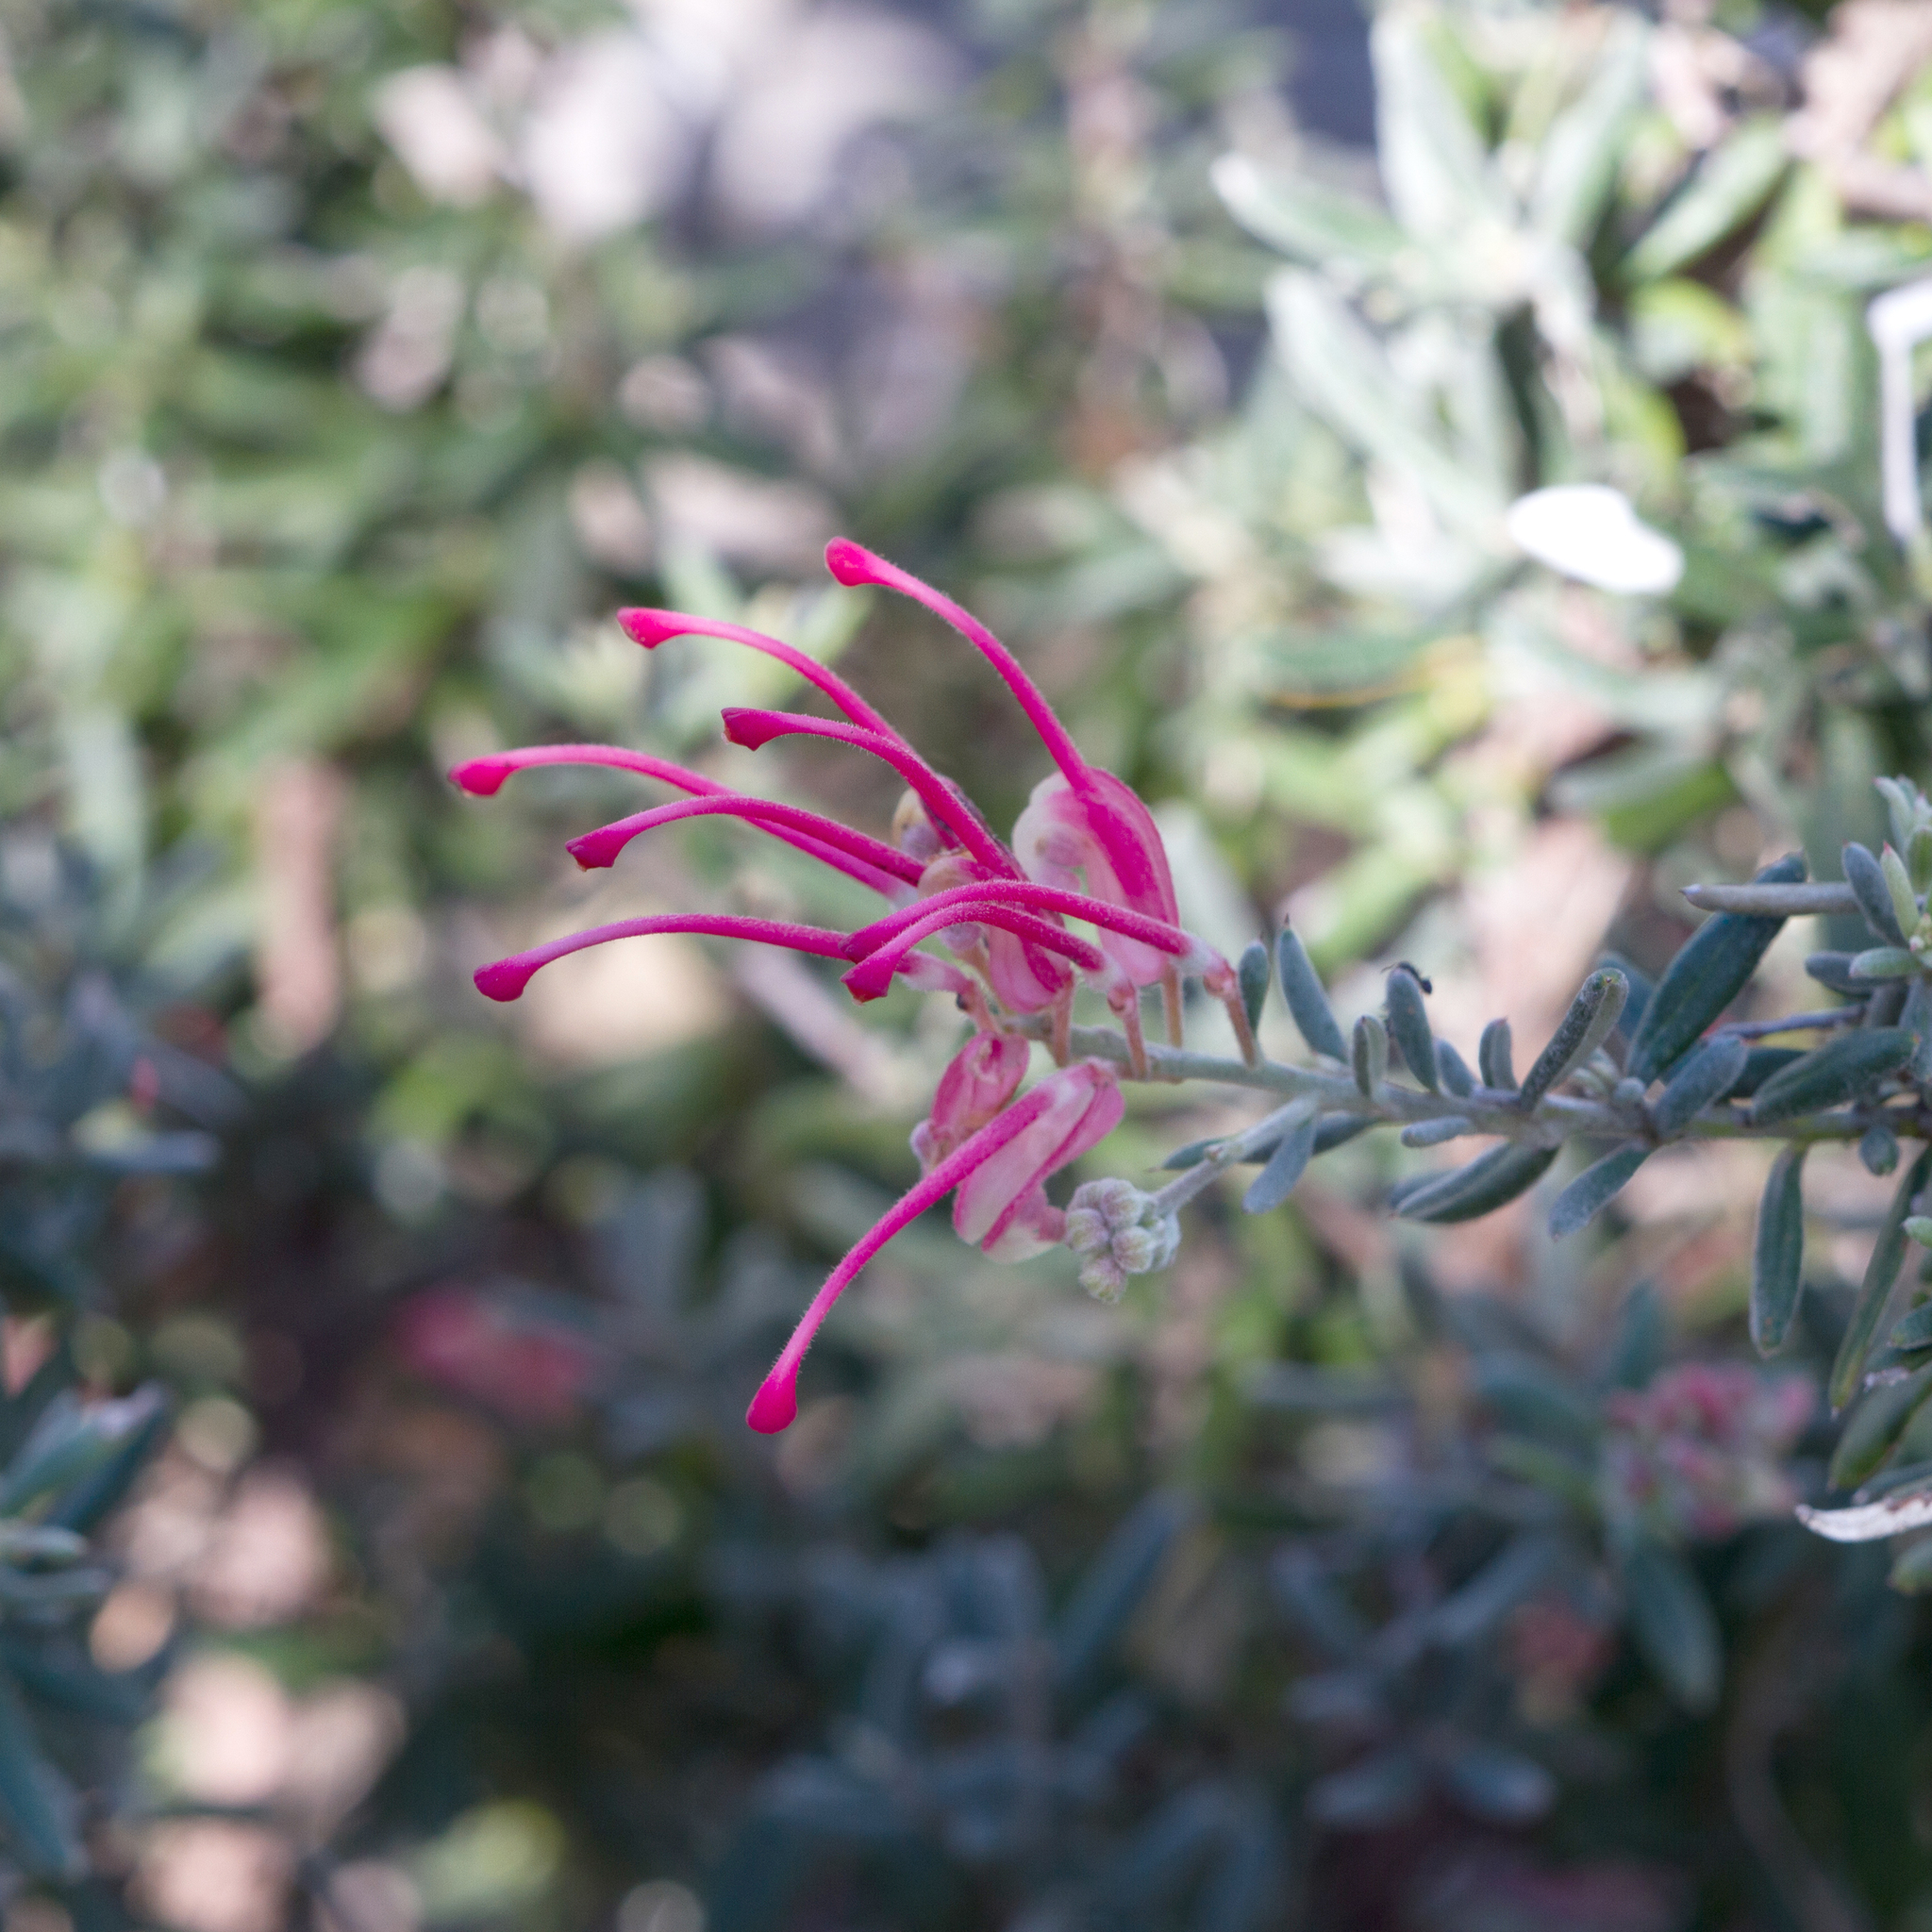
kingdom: Plantae
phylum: Tracheophyta
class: Magnoliopsida
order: Proteales
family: Proteaceae
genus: Grevillea
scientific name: Grevillea lavandulacea
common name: Lavender grevillea
